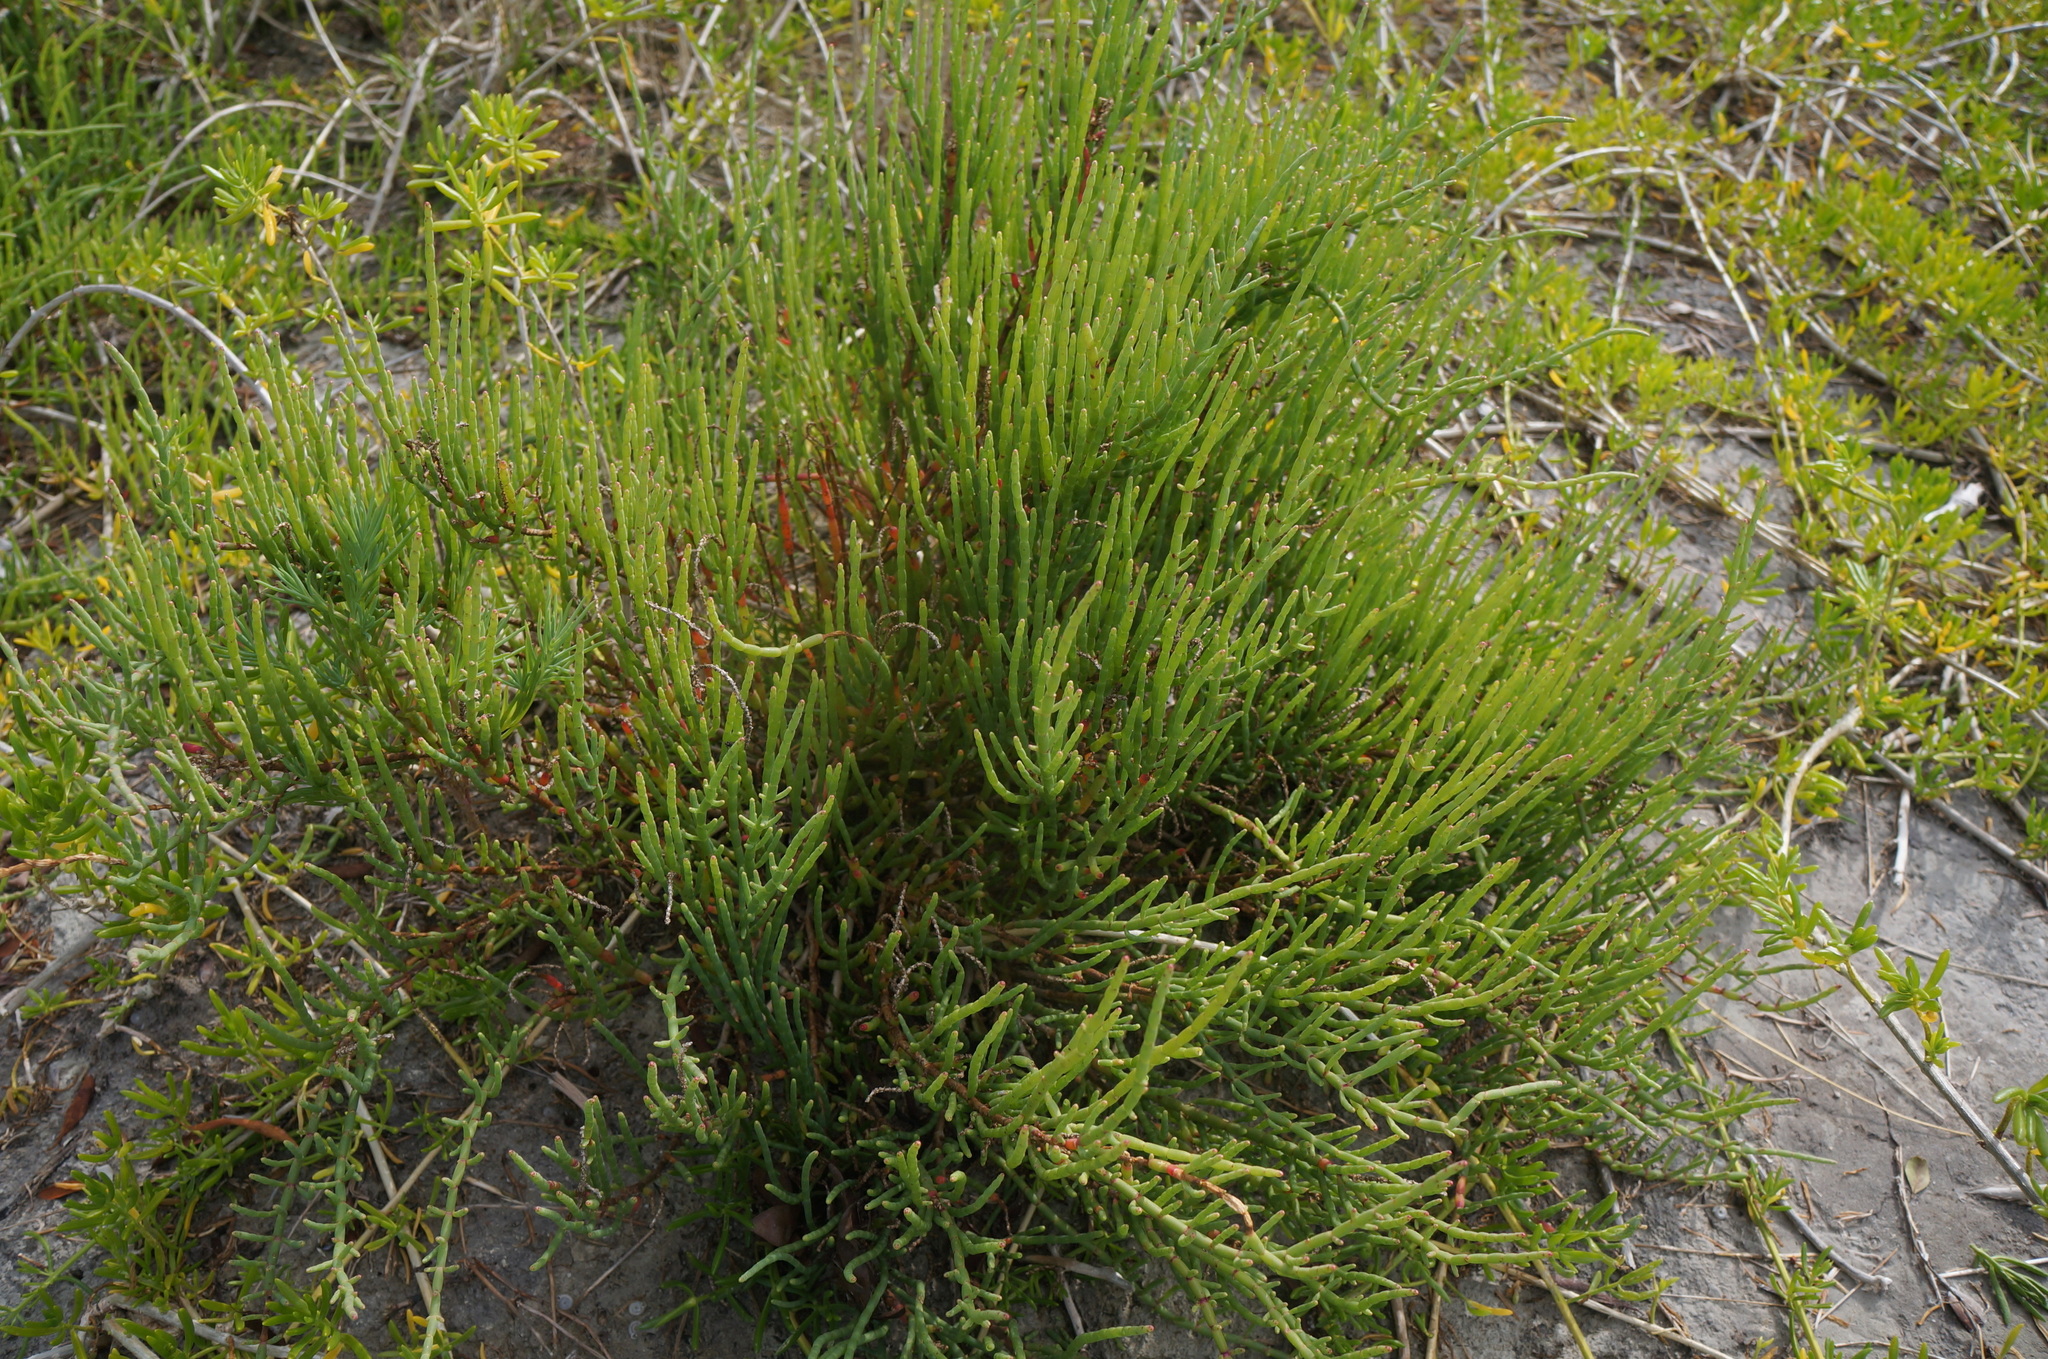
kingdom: Plantae
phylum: Tracheophyta
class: Magnoliopsida
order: Caryophyllales
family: Amaranthaceae
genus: Salicornia
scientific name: Salicornia ambigua
